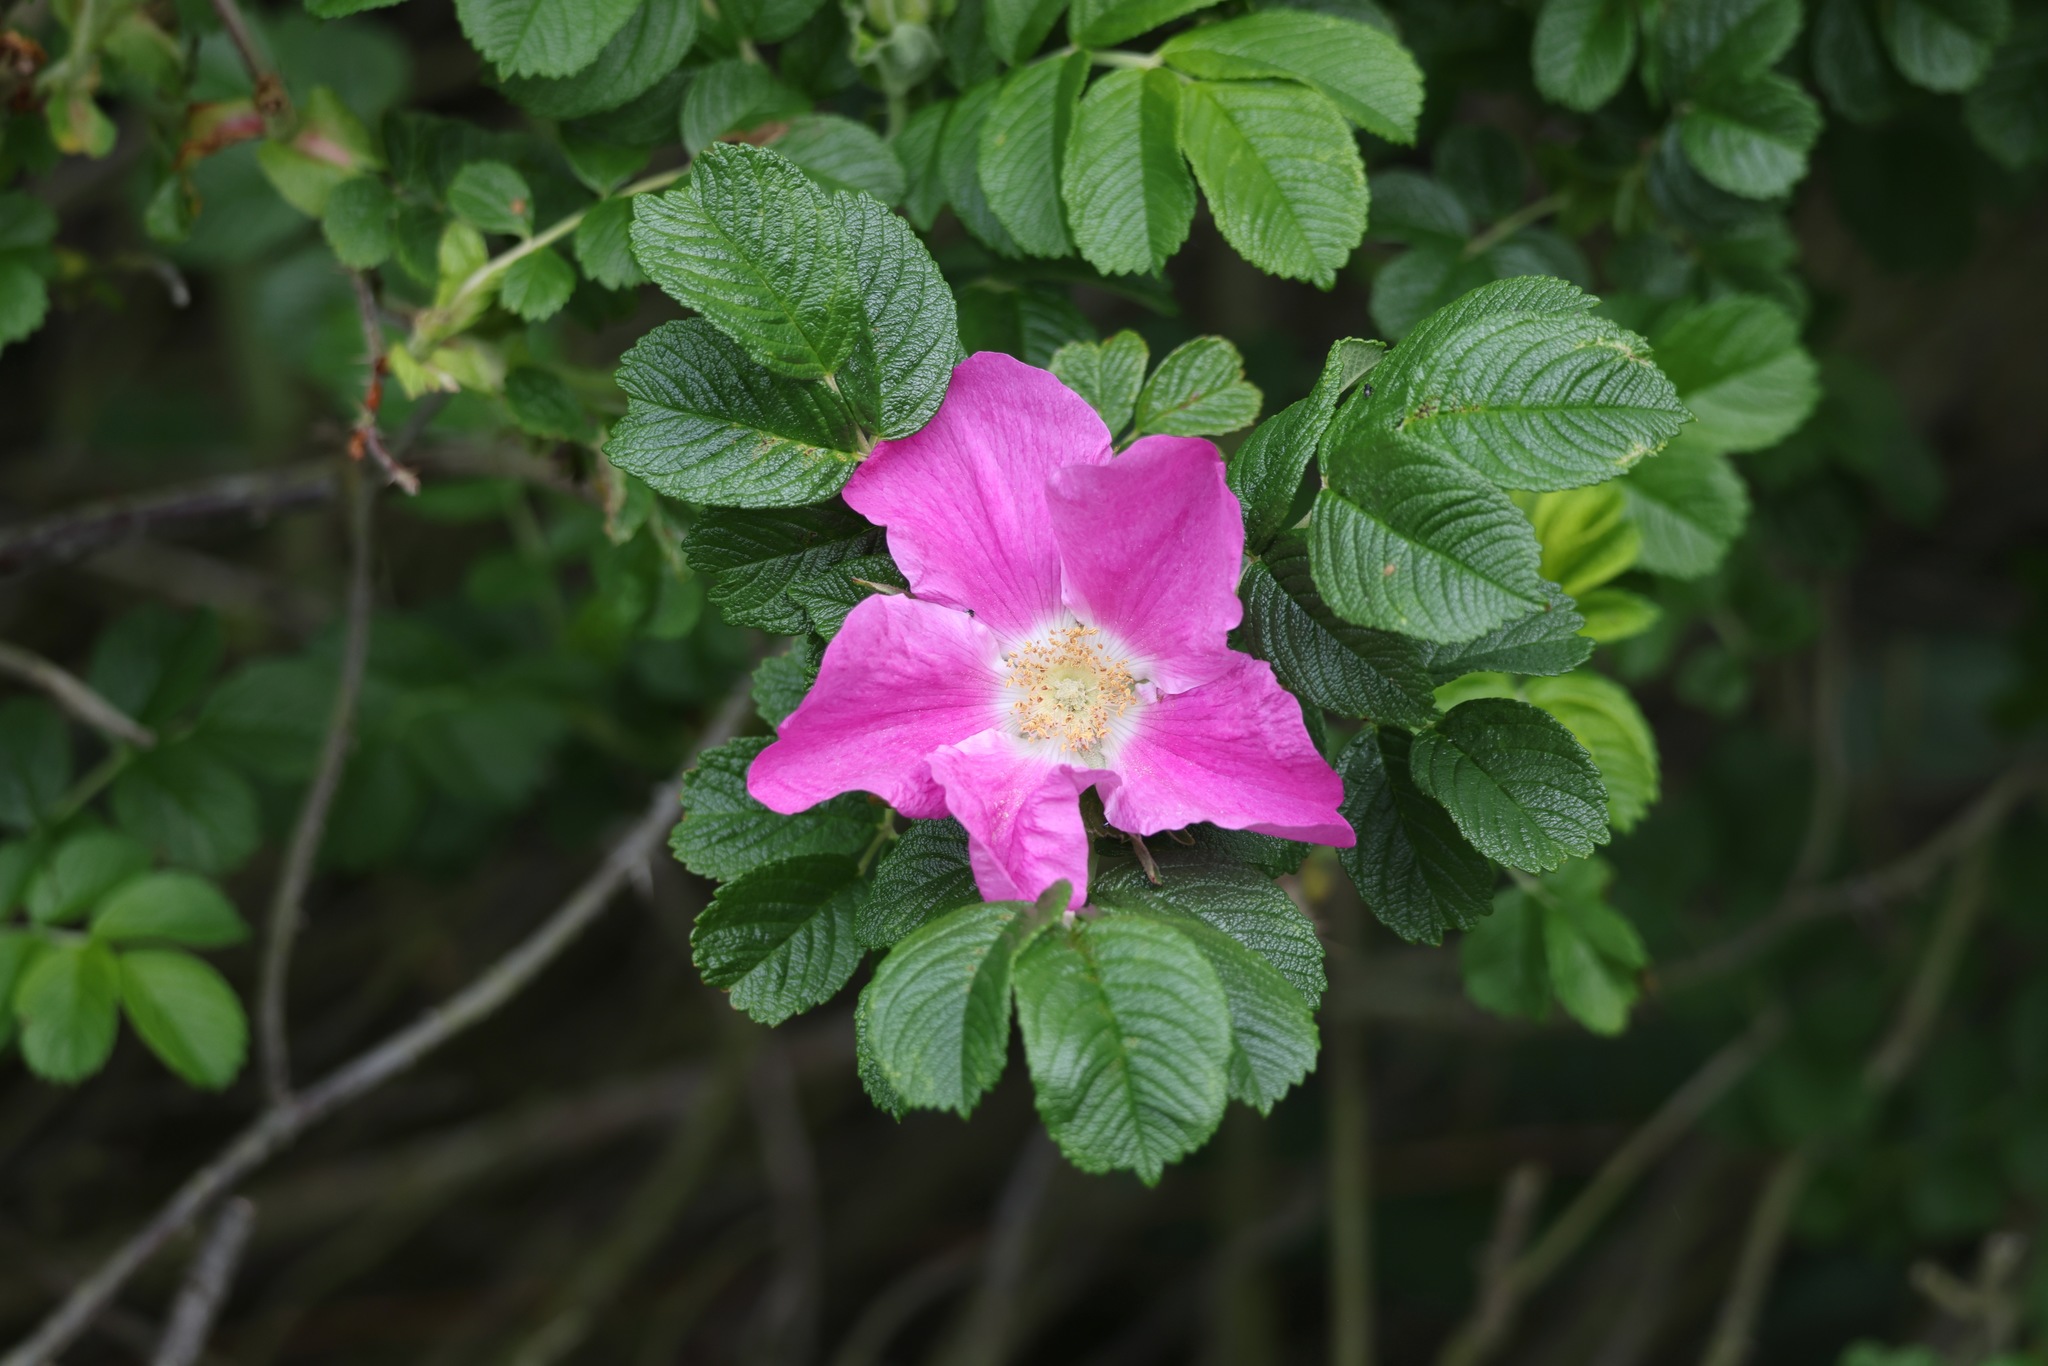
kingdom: Plantae
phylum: Tracheophyta
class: Magnoliopsida
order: Rosales
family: Rosaceae
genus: Rosa
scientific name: Rosa rugosa
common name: Japanese rose
